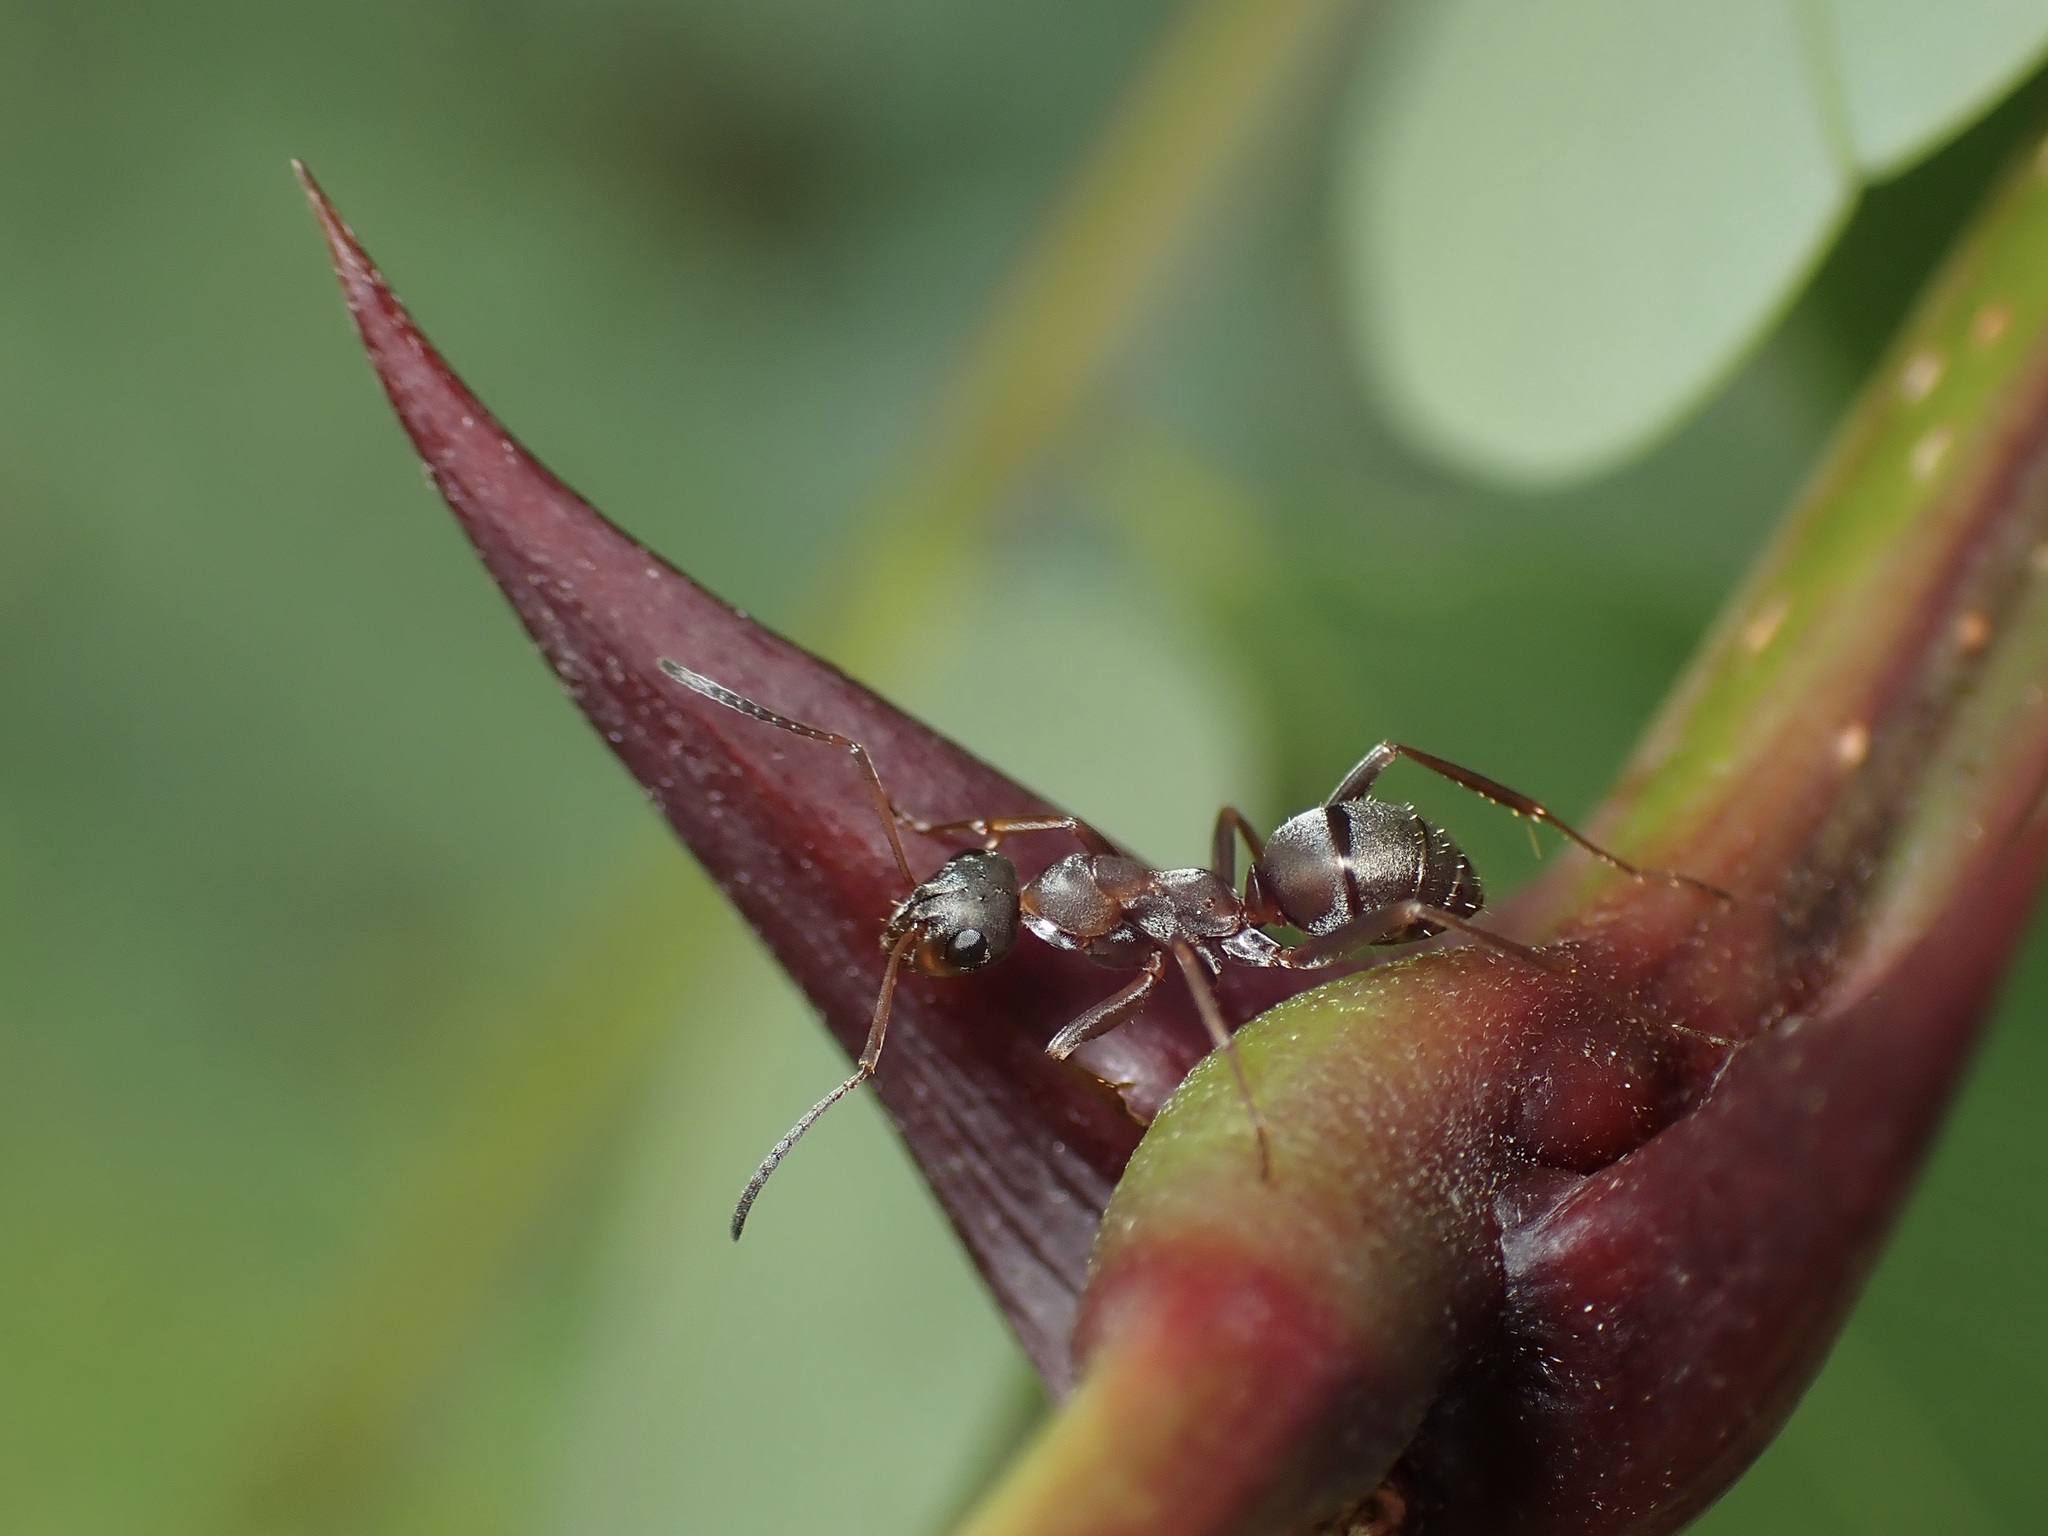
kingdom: Animalia
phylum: Arthropoda
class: Insecta
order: Hymenoptera
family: Formicidae
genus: Formica
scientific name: Formica cunicularia
